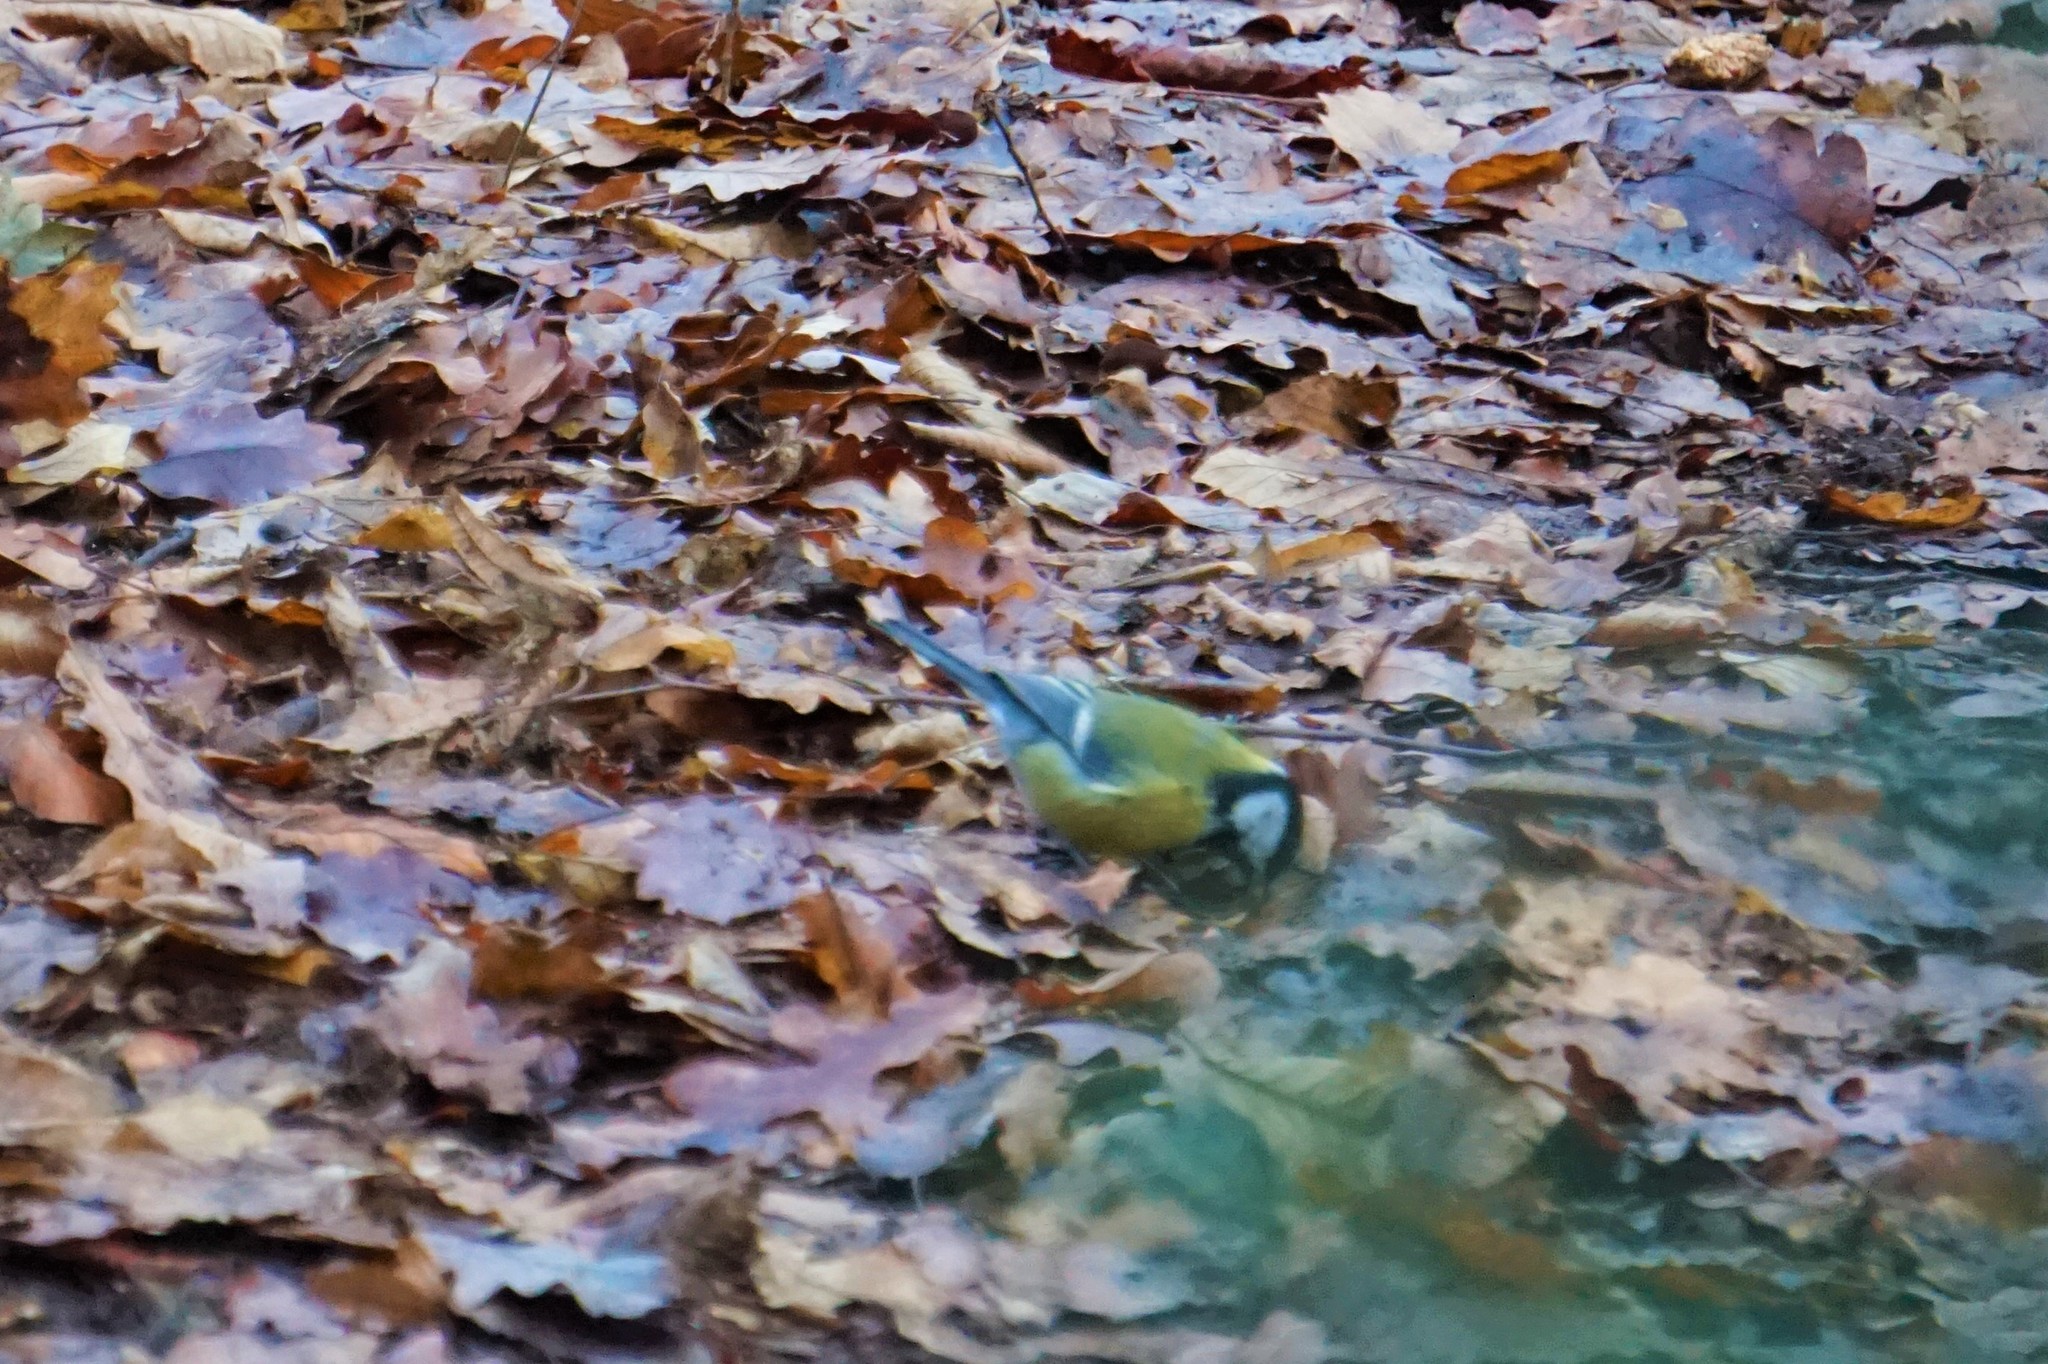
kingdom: Animalia
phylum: Chordata
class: Aves
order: Passeriformes
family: Paridae
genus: Parus
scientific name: Parus major
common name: Great tit
